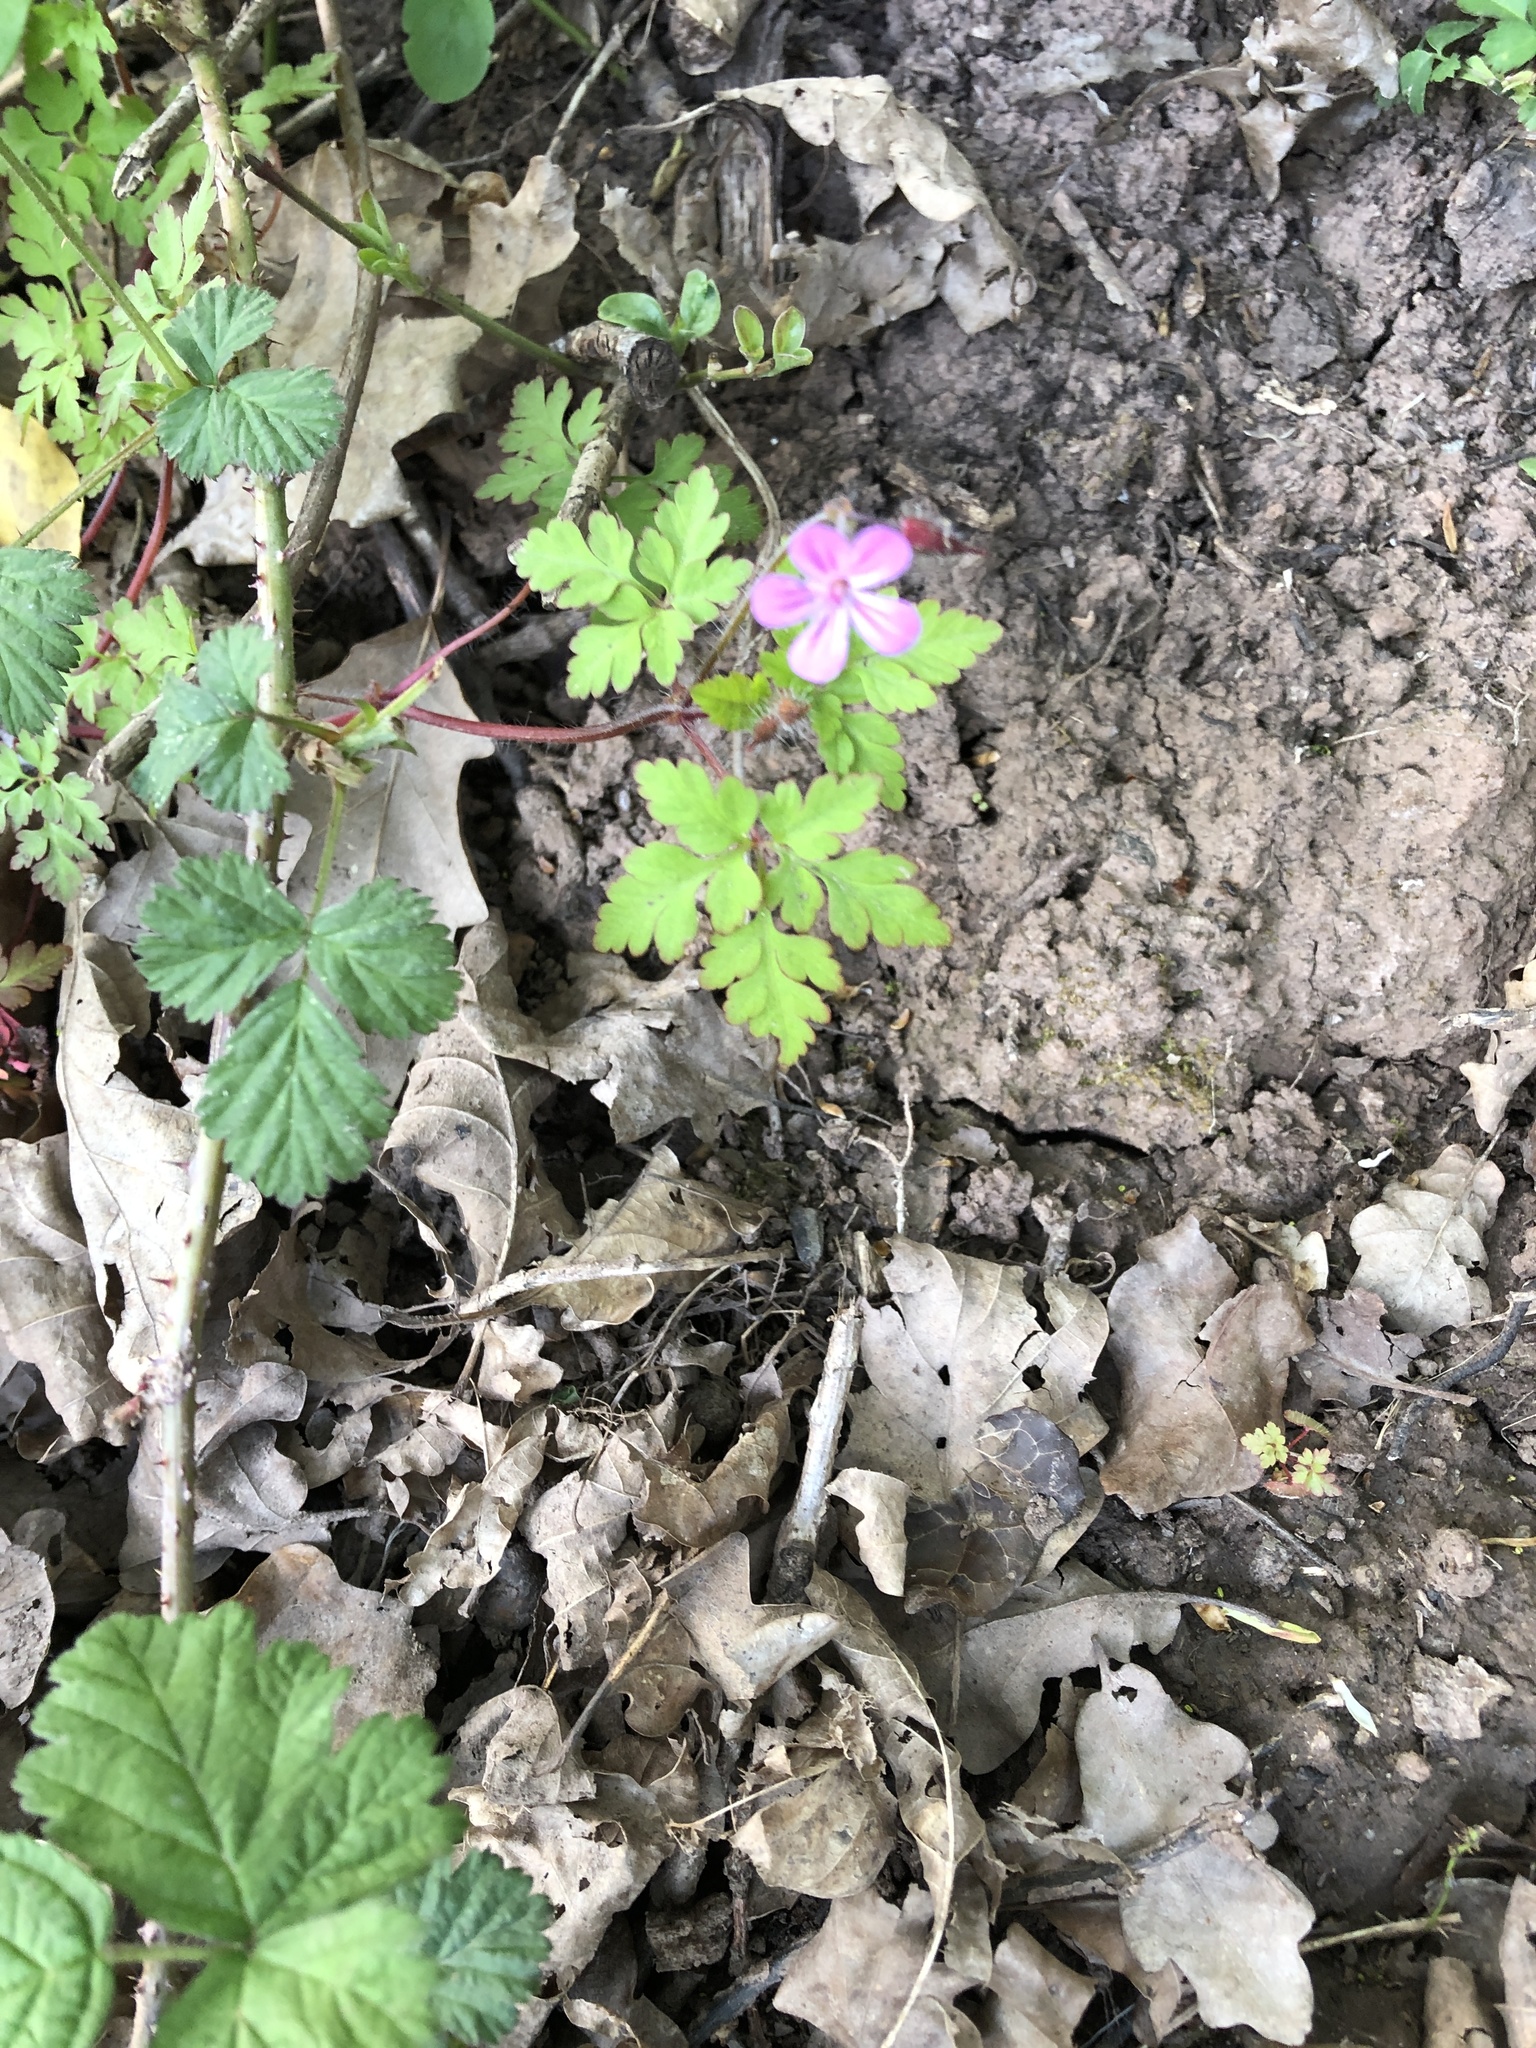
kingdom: Plantae
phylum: Tracheophyta
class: Magnoliopsida
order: Geraniales
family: Geraniaceae
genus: Geranium
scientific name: Geranium robertianum
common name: Herb-robert
